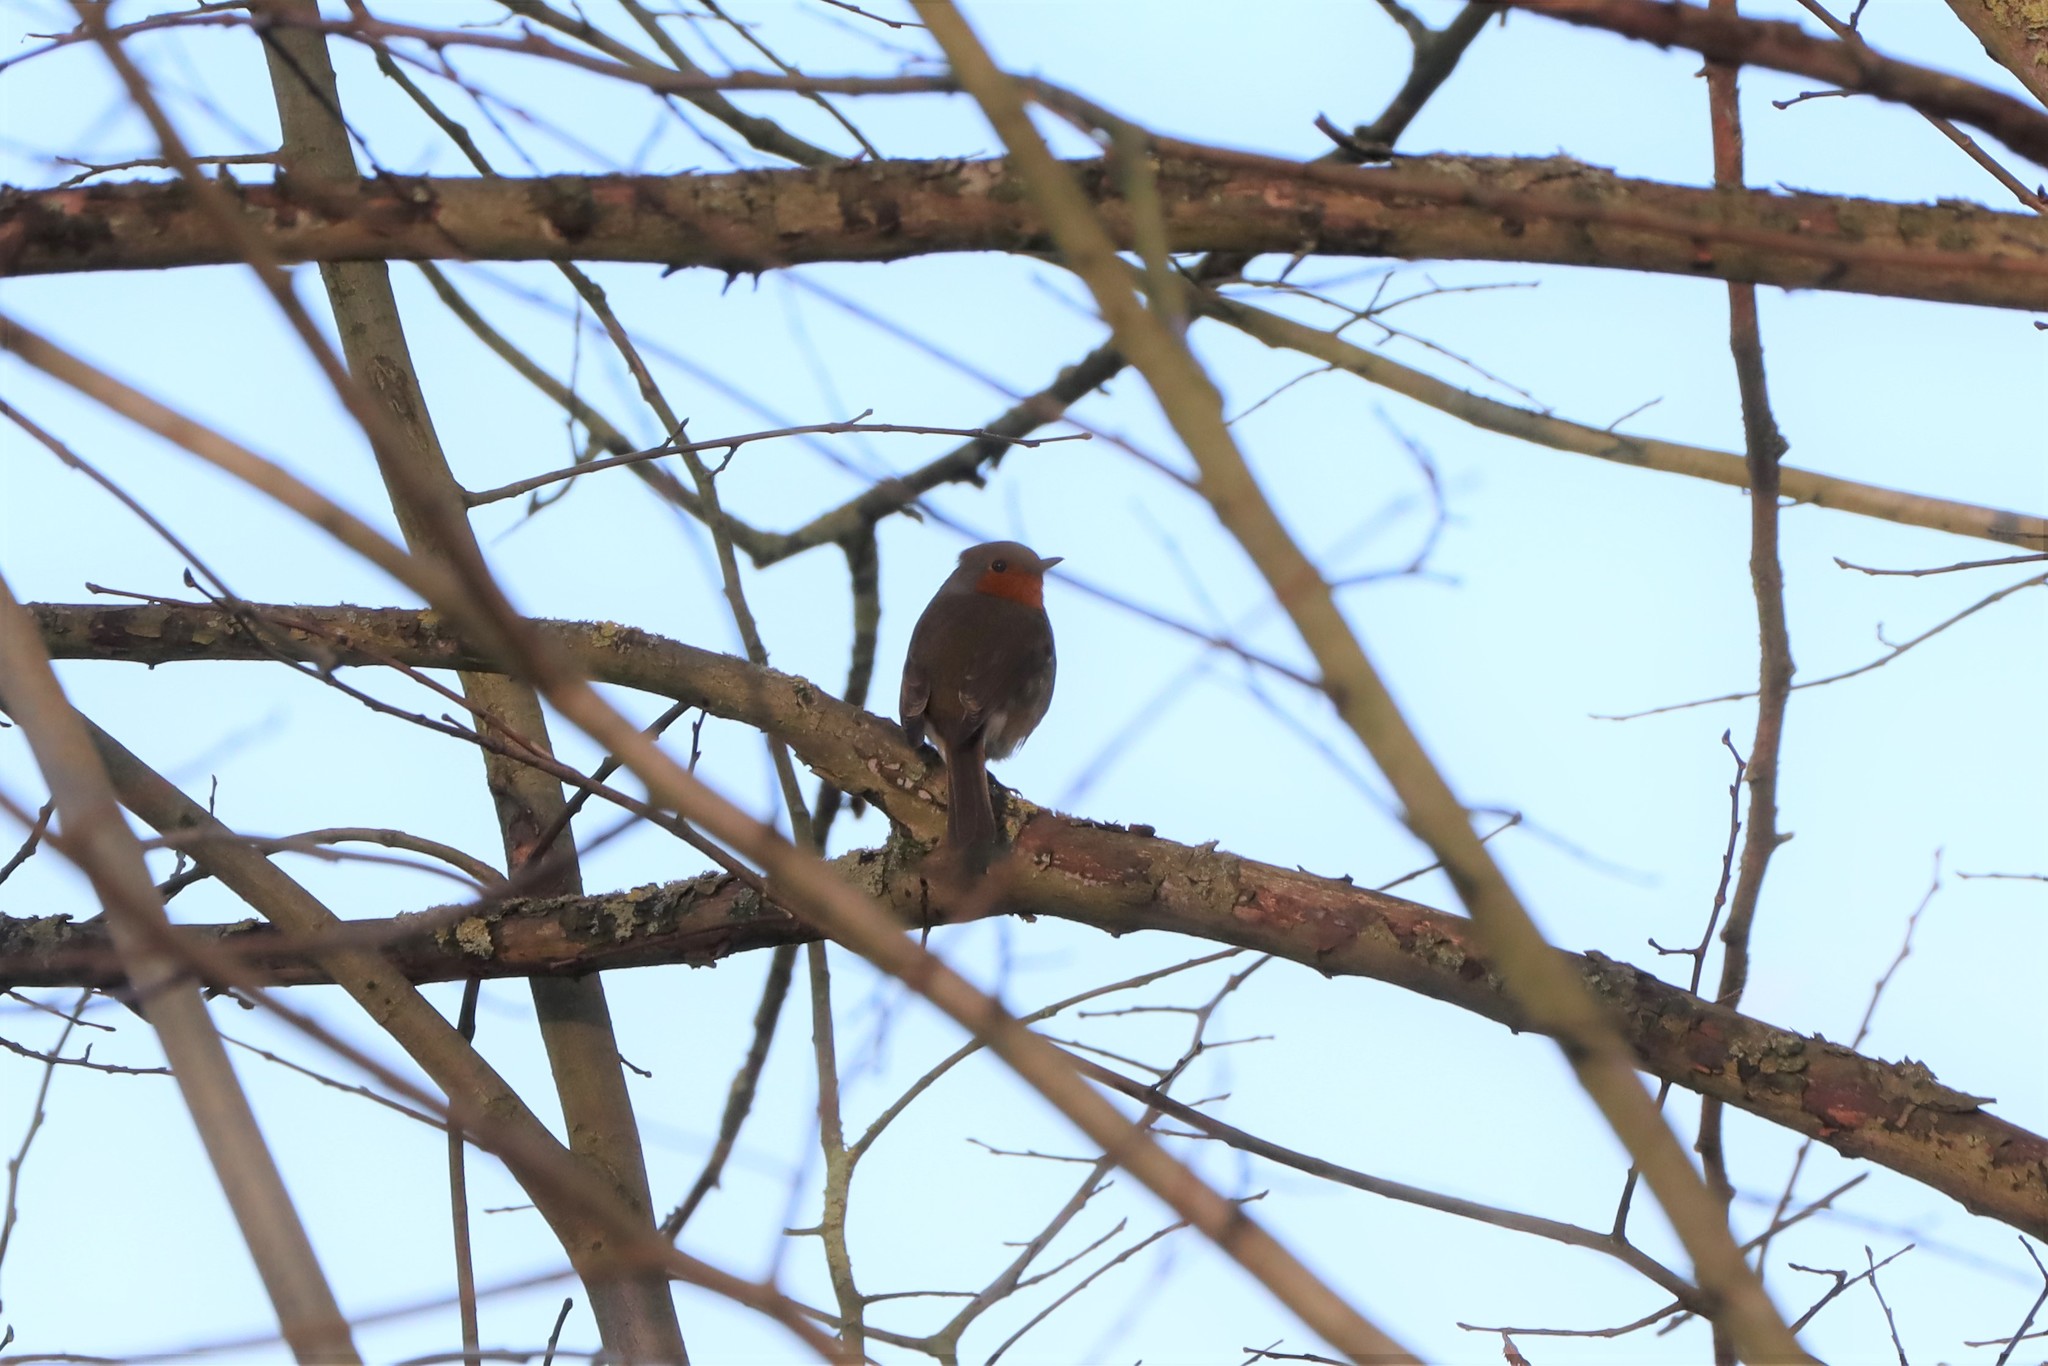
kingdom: Animalia
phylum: Chordata
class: Aves
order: Passeriformes
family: Muscicapidae
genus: Erithacus
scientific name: Erithacus rubecula
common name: European robin
